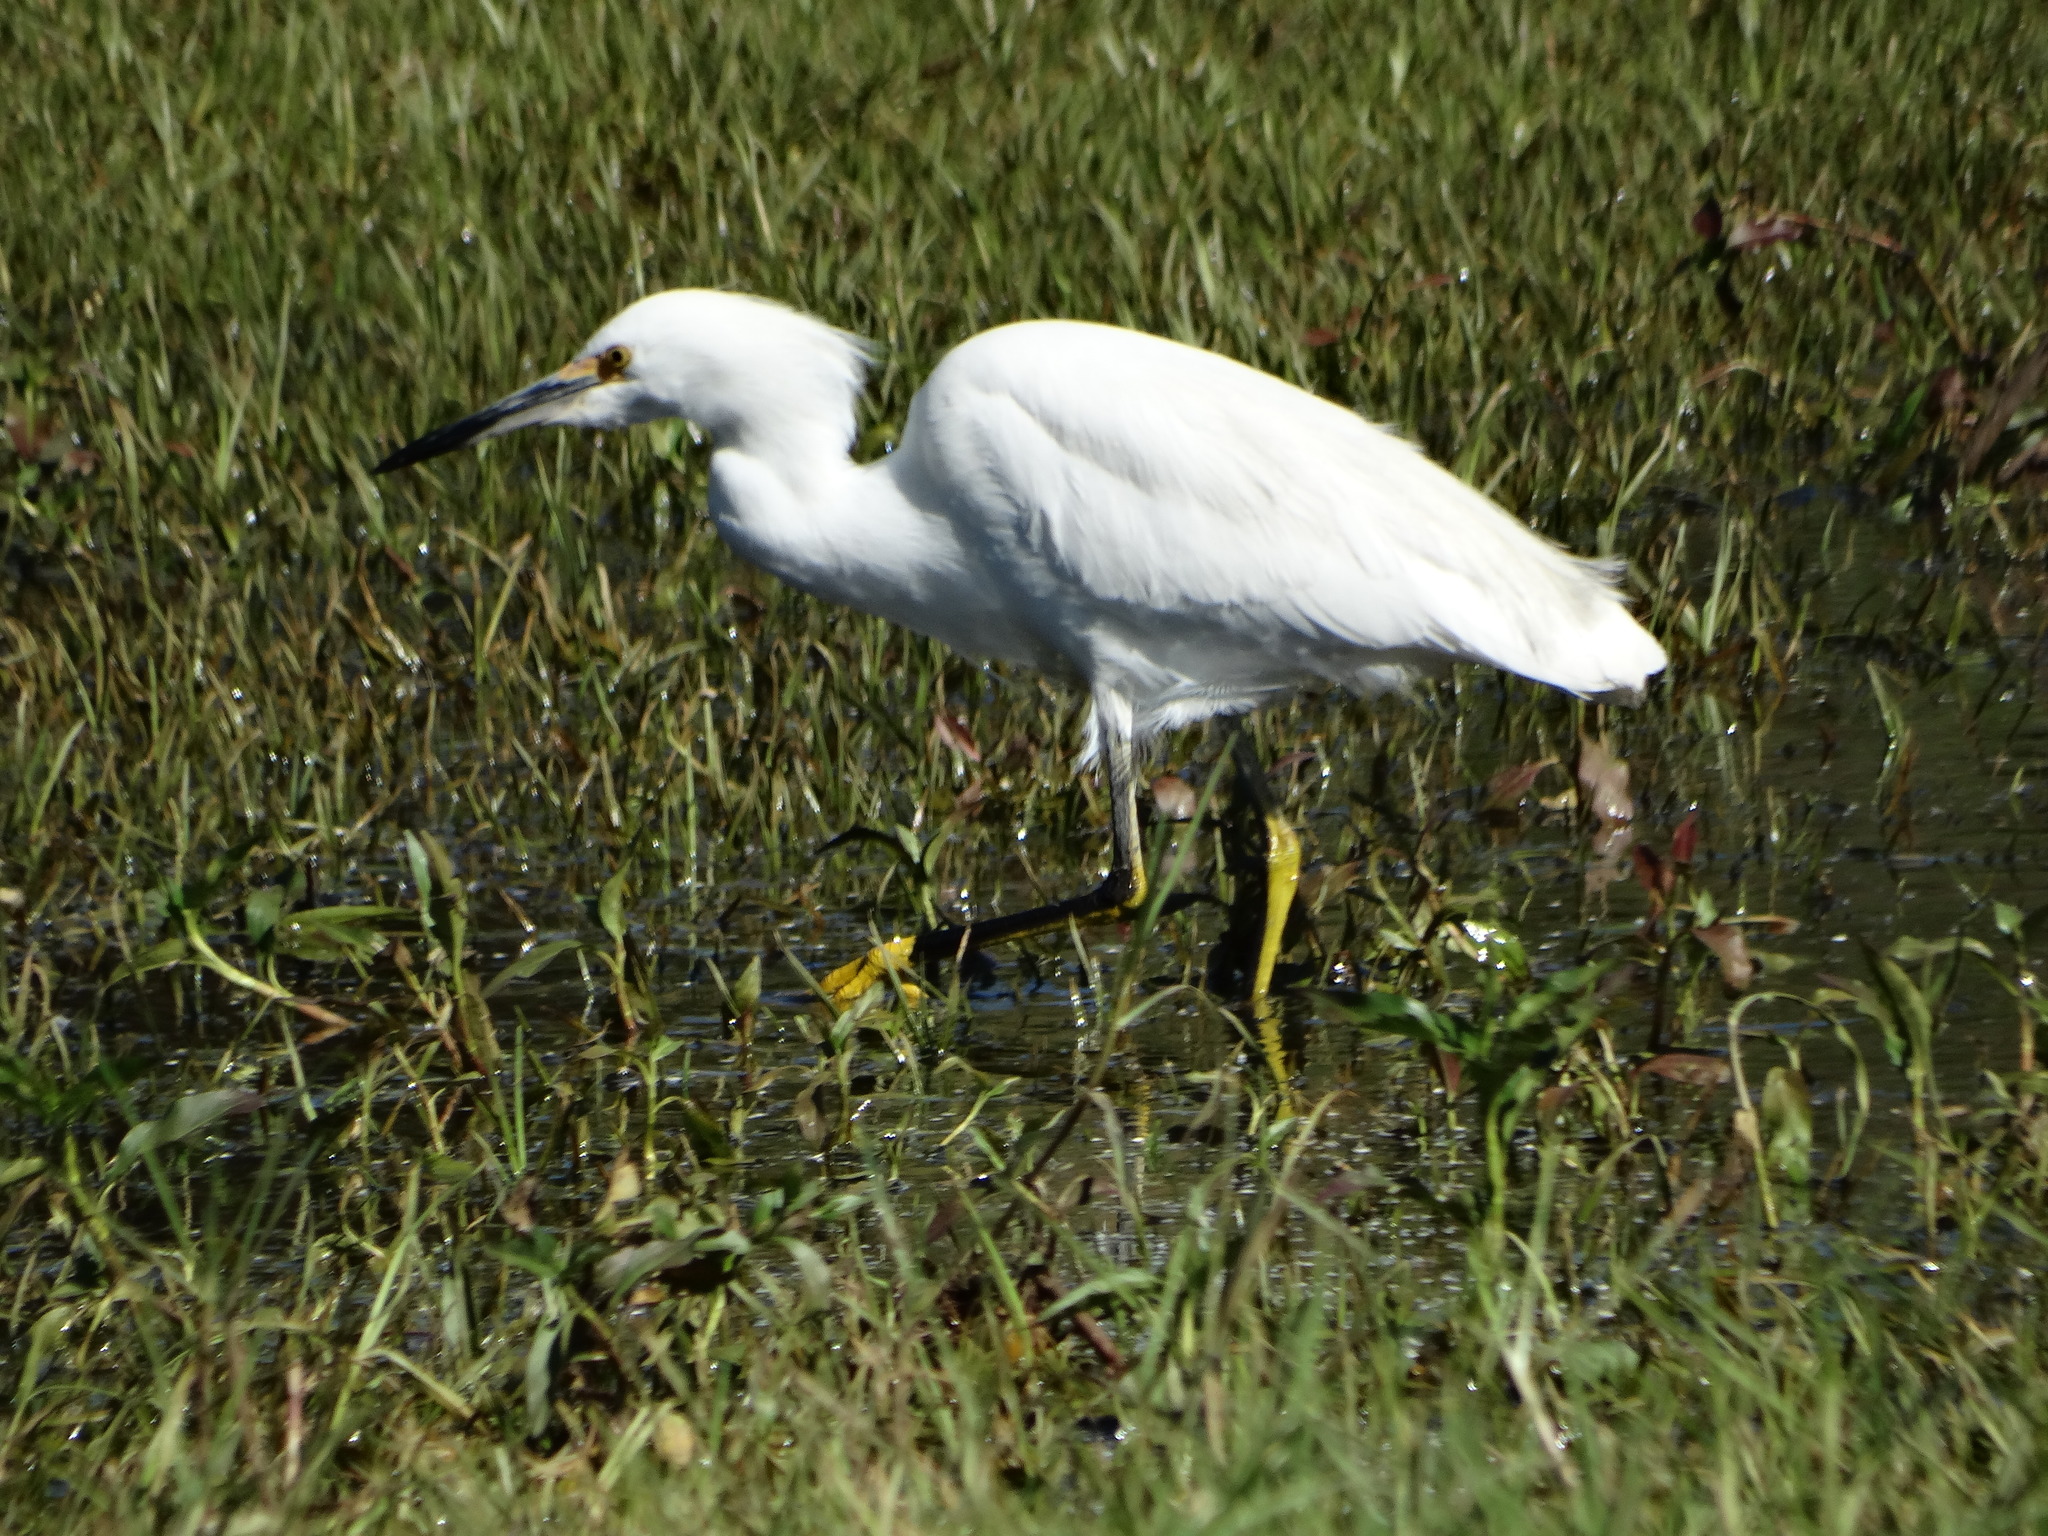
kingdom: Animalia
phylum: Chordata
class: Aves
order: Pelecaniformes
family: Ardeidae
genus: Egretta
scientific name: Egretta thula
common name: Snowy egret
